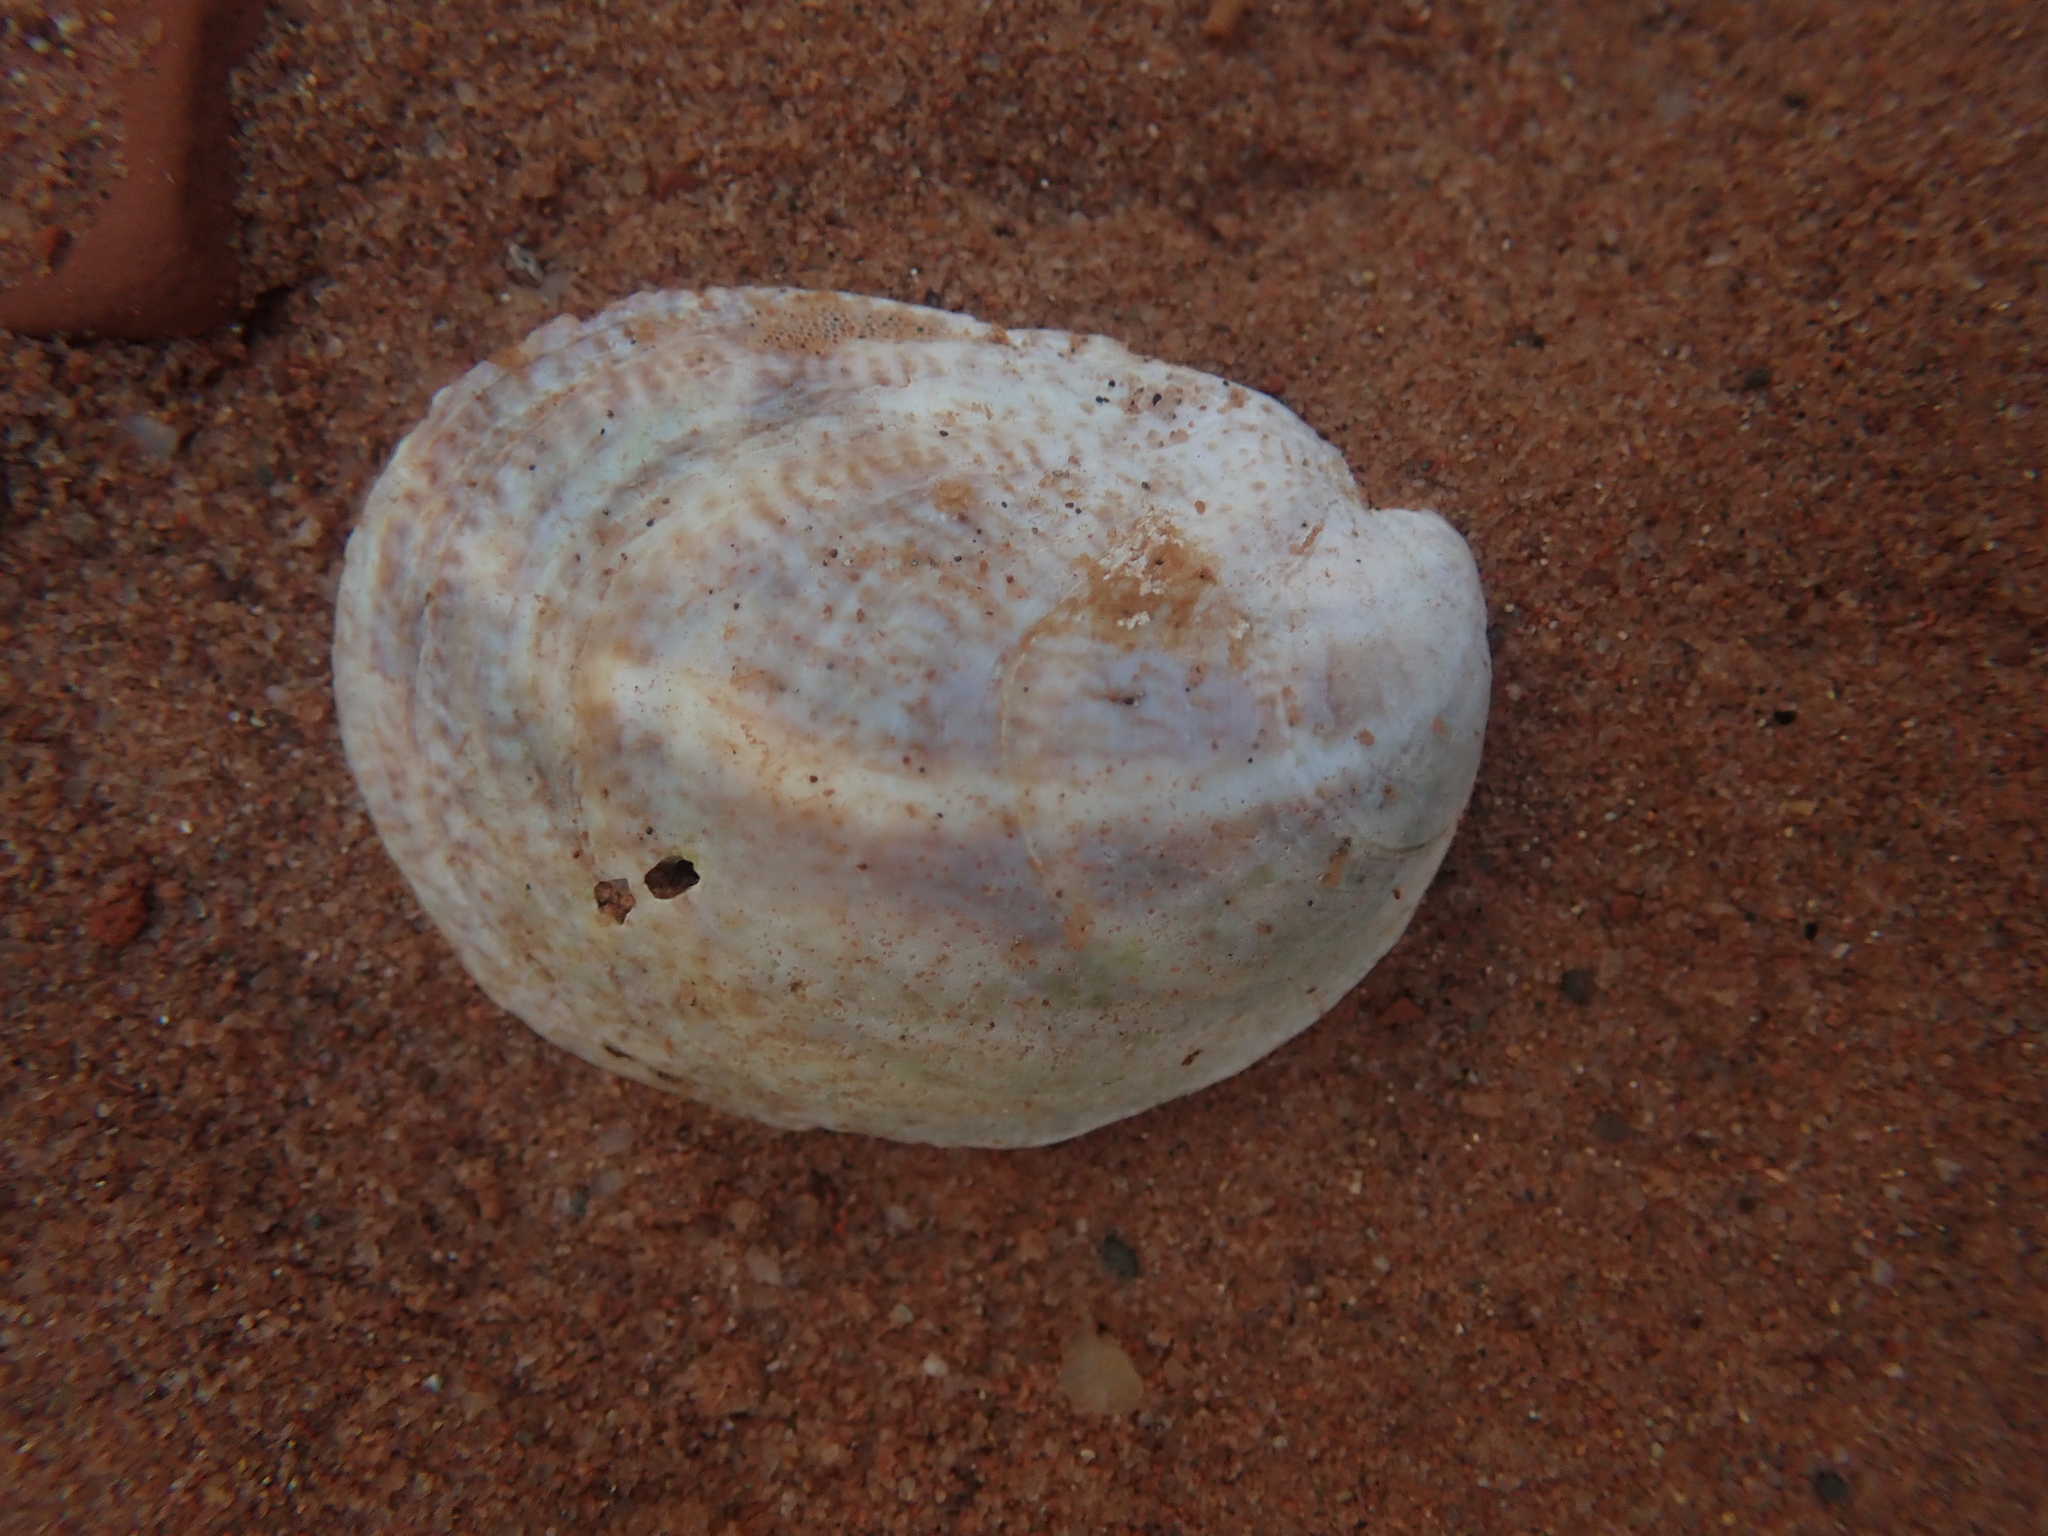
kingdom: Animalia
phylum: Mollusca
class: Gastropoda
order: Littorinimorpha
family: Calyptraeidae
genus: Crepidula
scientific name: Crepidula fornicata
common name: Slipper limpet
